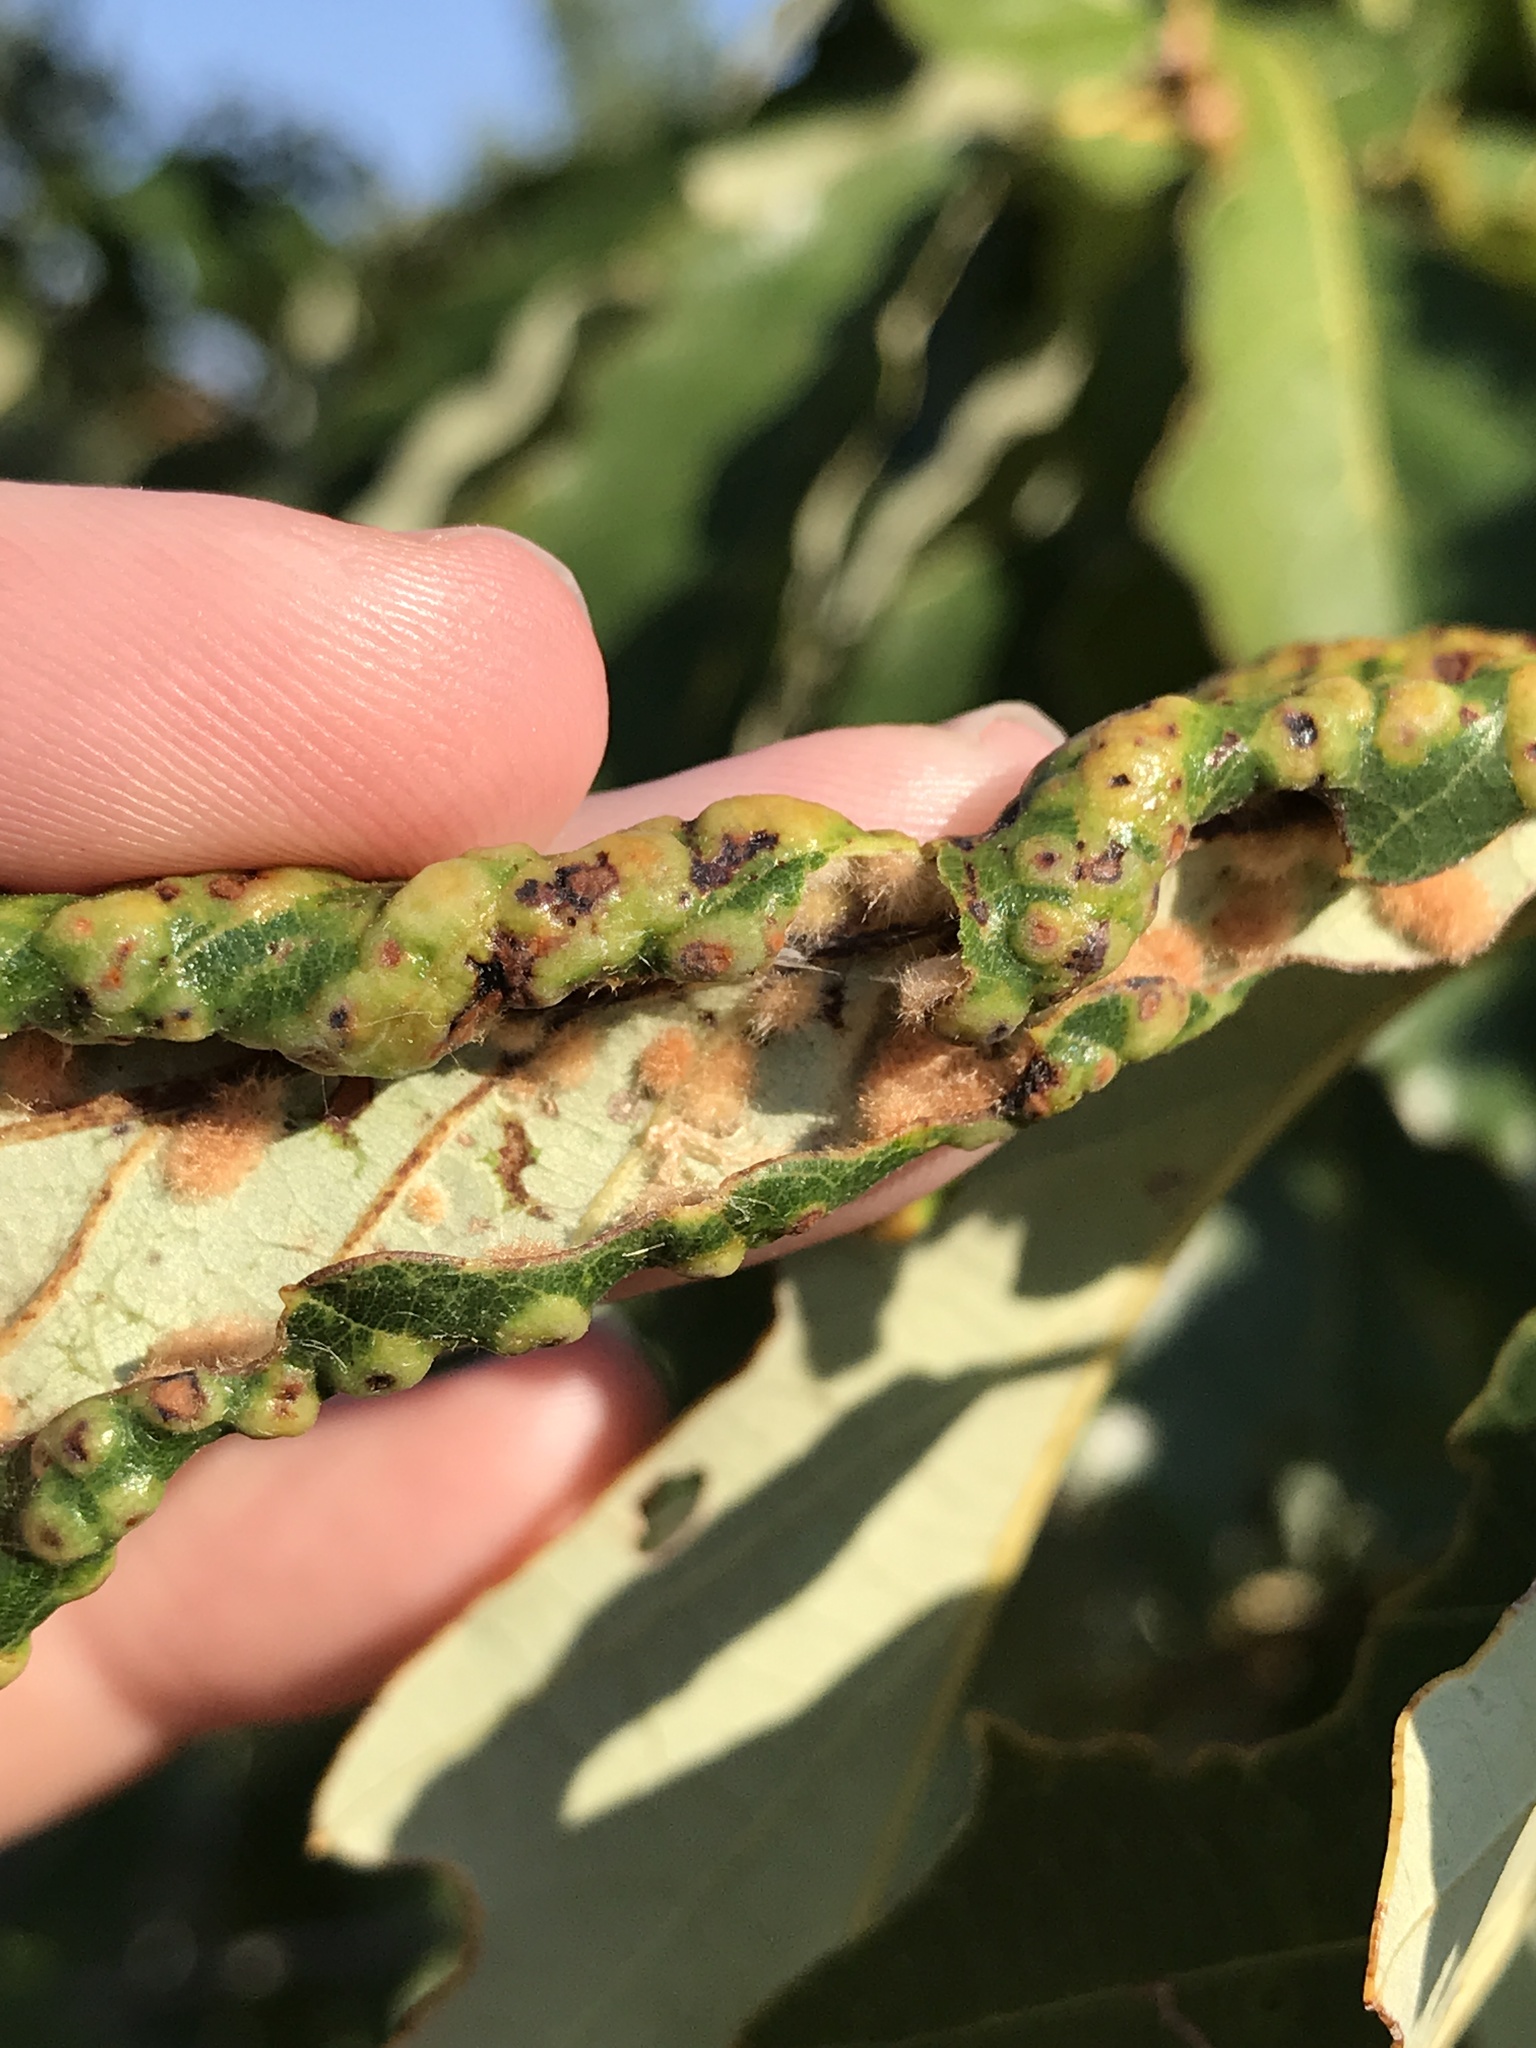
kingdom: Animalia
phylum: Arthropoda
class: Insecta
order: Hymenoptera
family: Cynipidae
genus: Neuroterus
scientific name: Neuroterus quercusverrucarum
